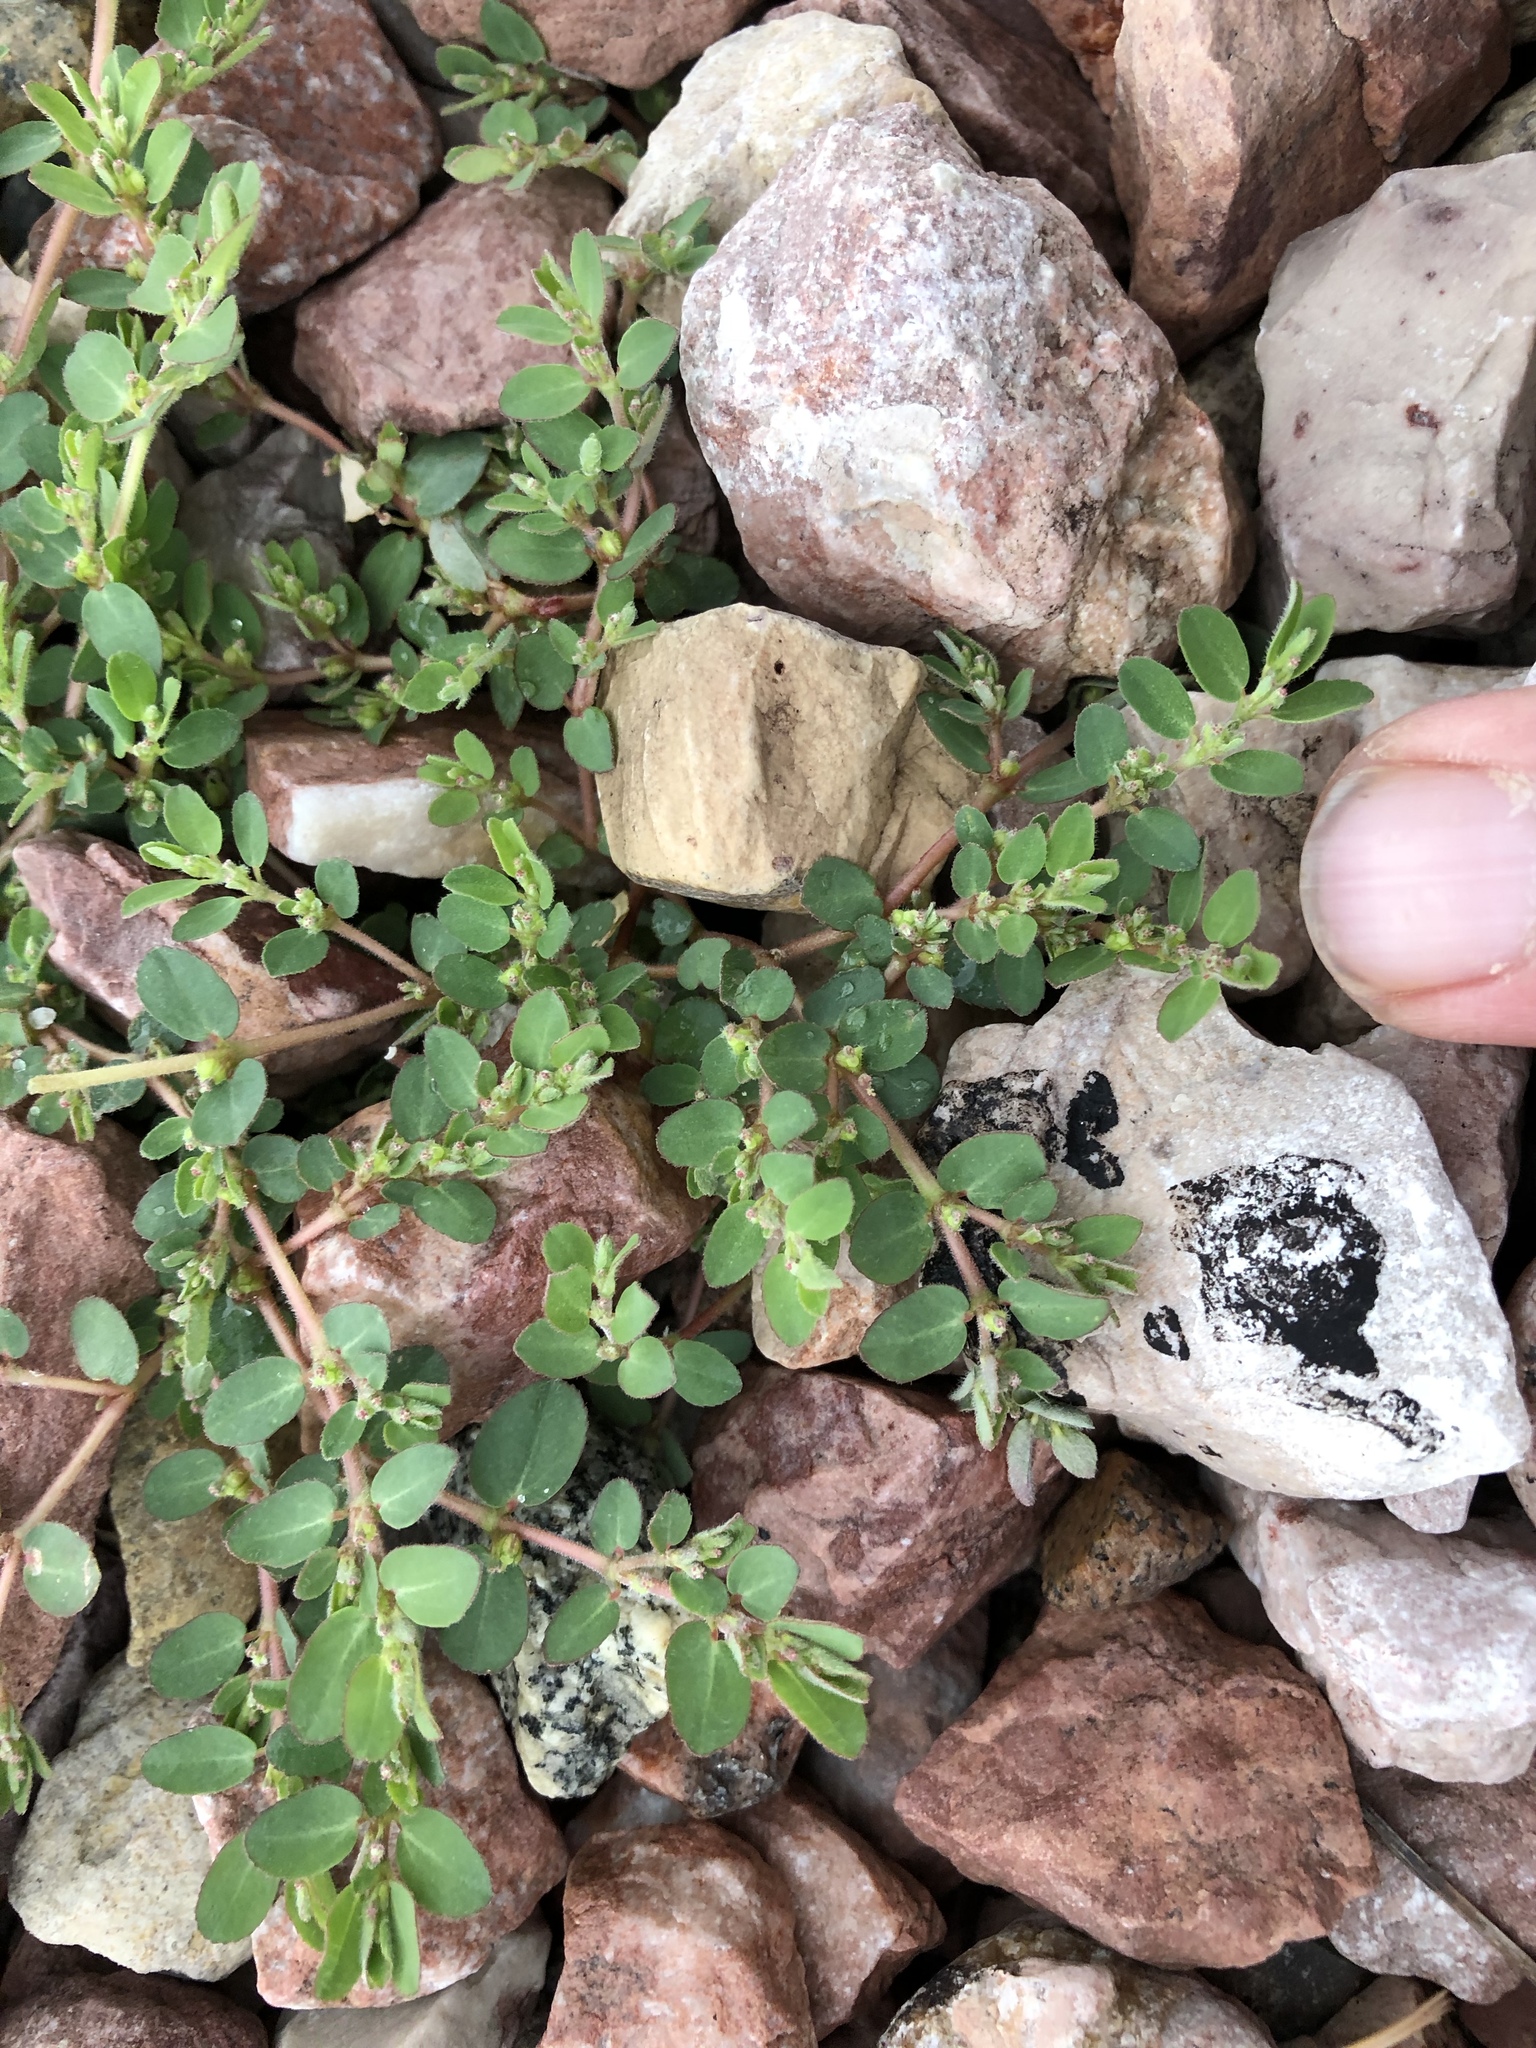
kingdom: Plantae
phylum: Tracheophyta
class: Magnoliopsida
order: Malpighiales
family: Euphorbiaceae
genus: Euphorbia
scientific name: Euphorbia prostrata
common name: Prostrate sandmat
